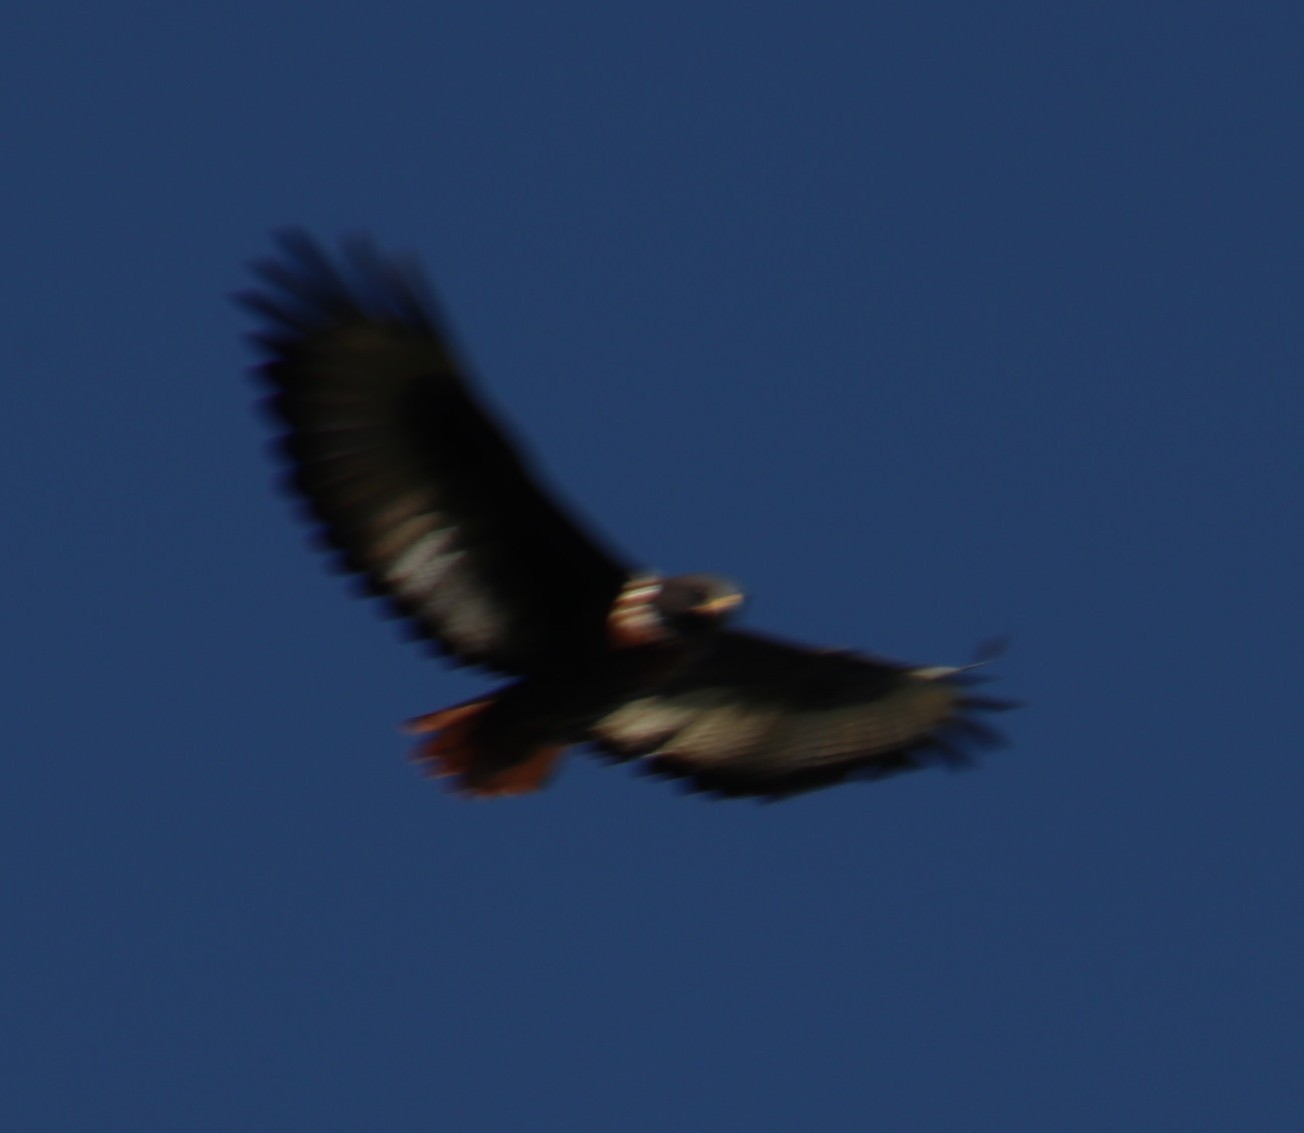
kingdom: Animalia
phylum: Chordata
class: Aves
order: Accipitriformes
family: Accipitridae
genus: Buteo
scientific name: Buteo rufofuscus
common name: Jackal buzzard
